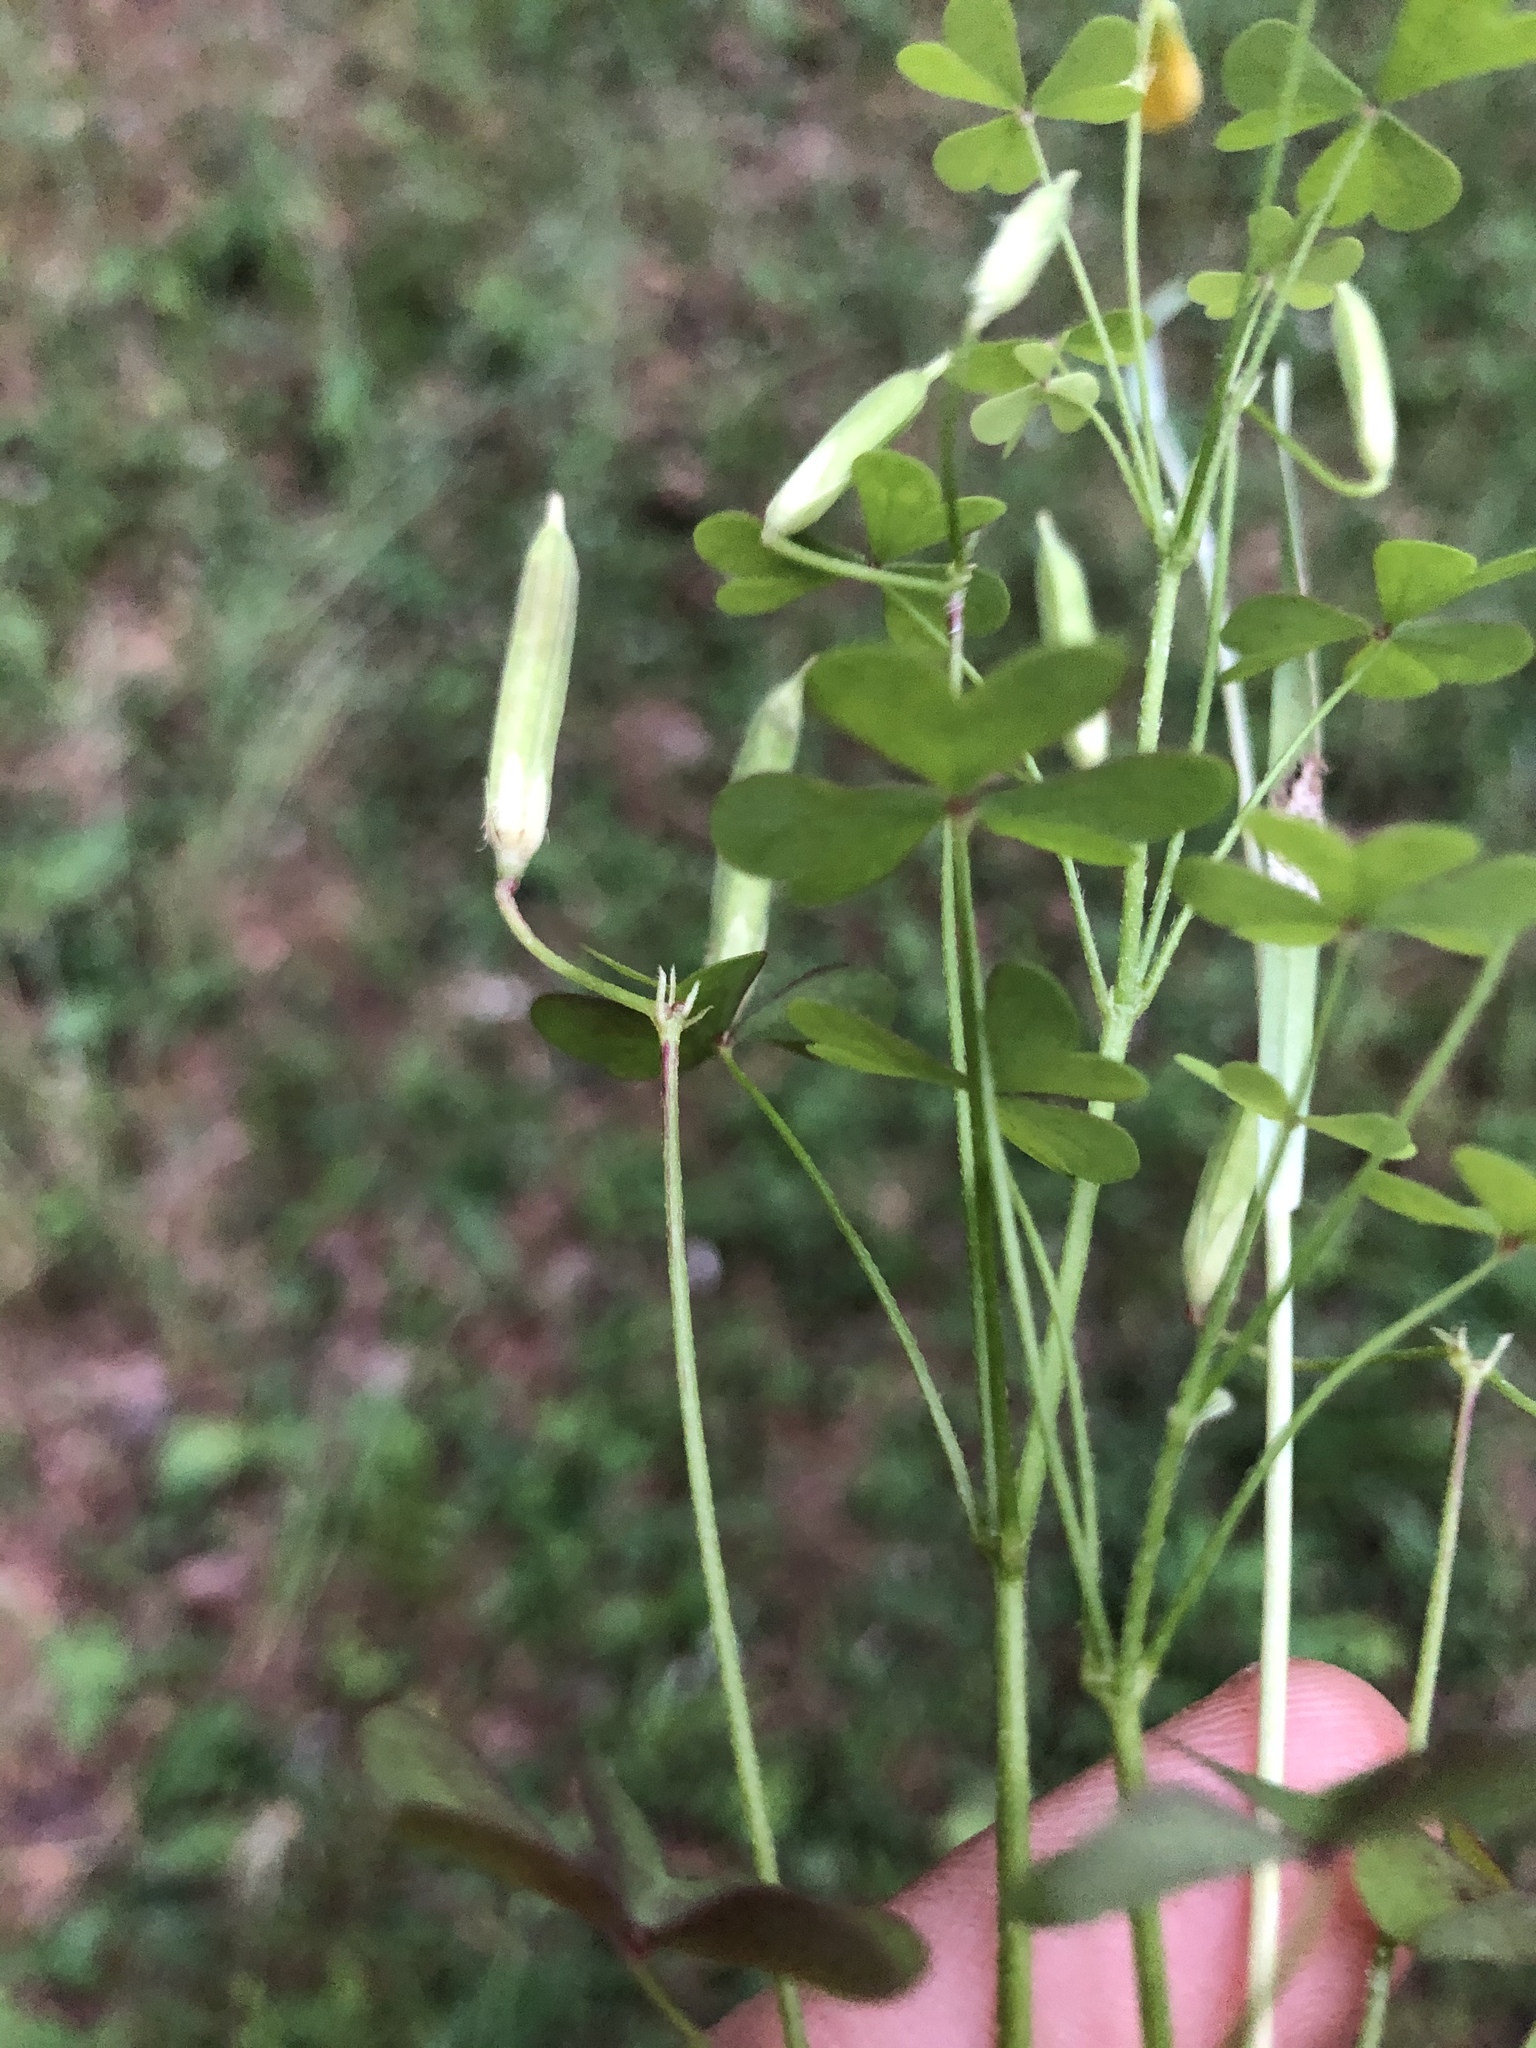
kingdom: Plantae
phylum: Tracheophyta
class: Magnoliopsida
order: Oxalidales
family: Oxalidaceae
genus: Oxalis
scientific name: Oxalis florida
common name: Flowering yellow woodsorrel
